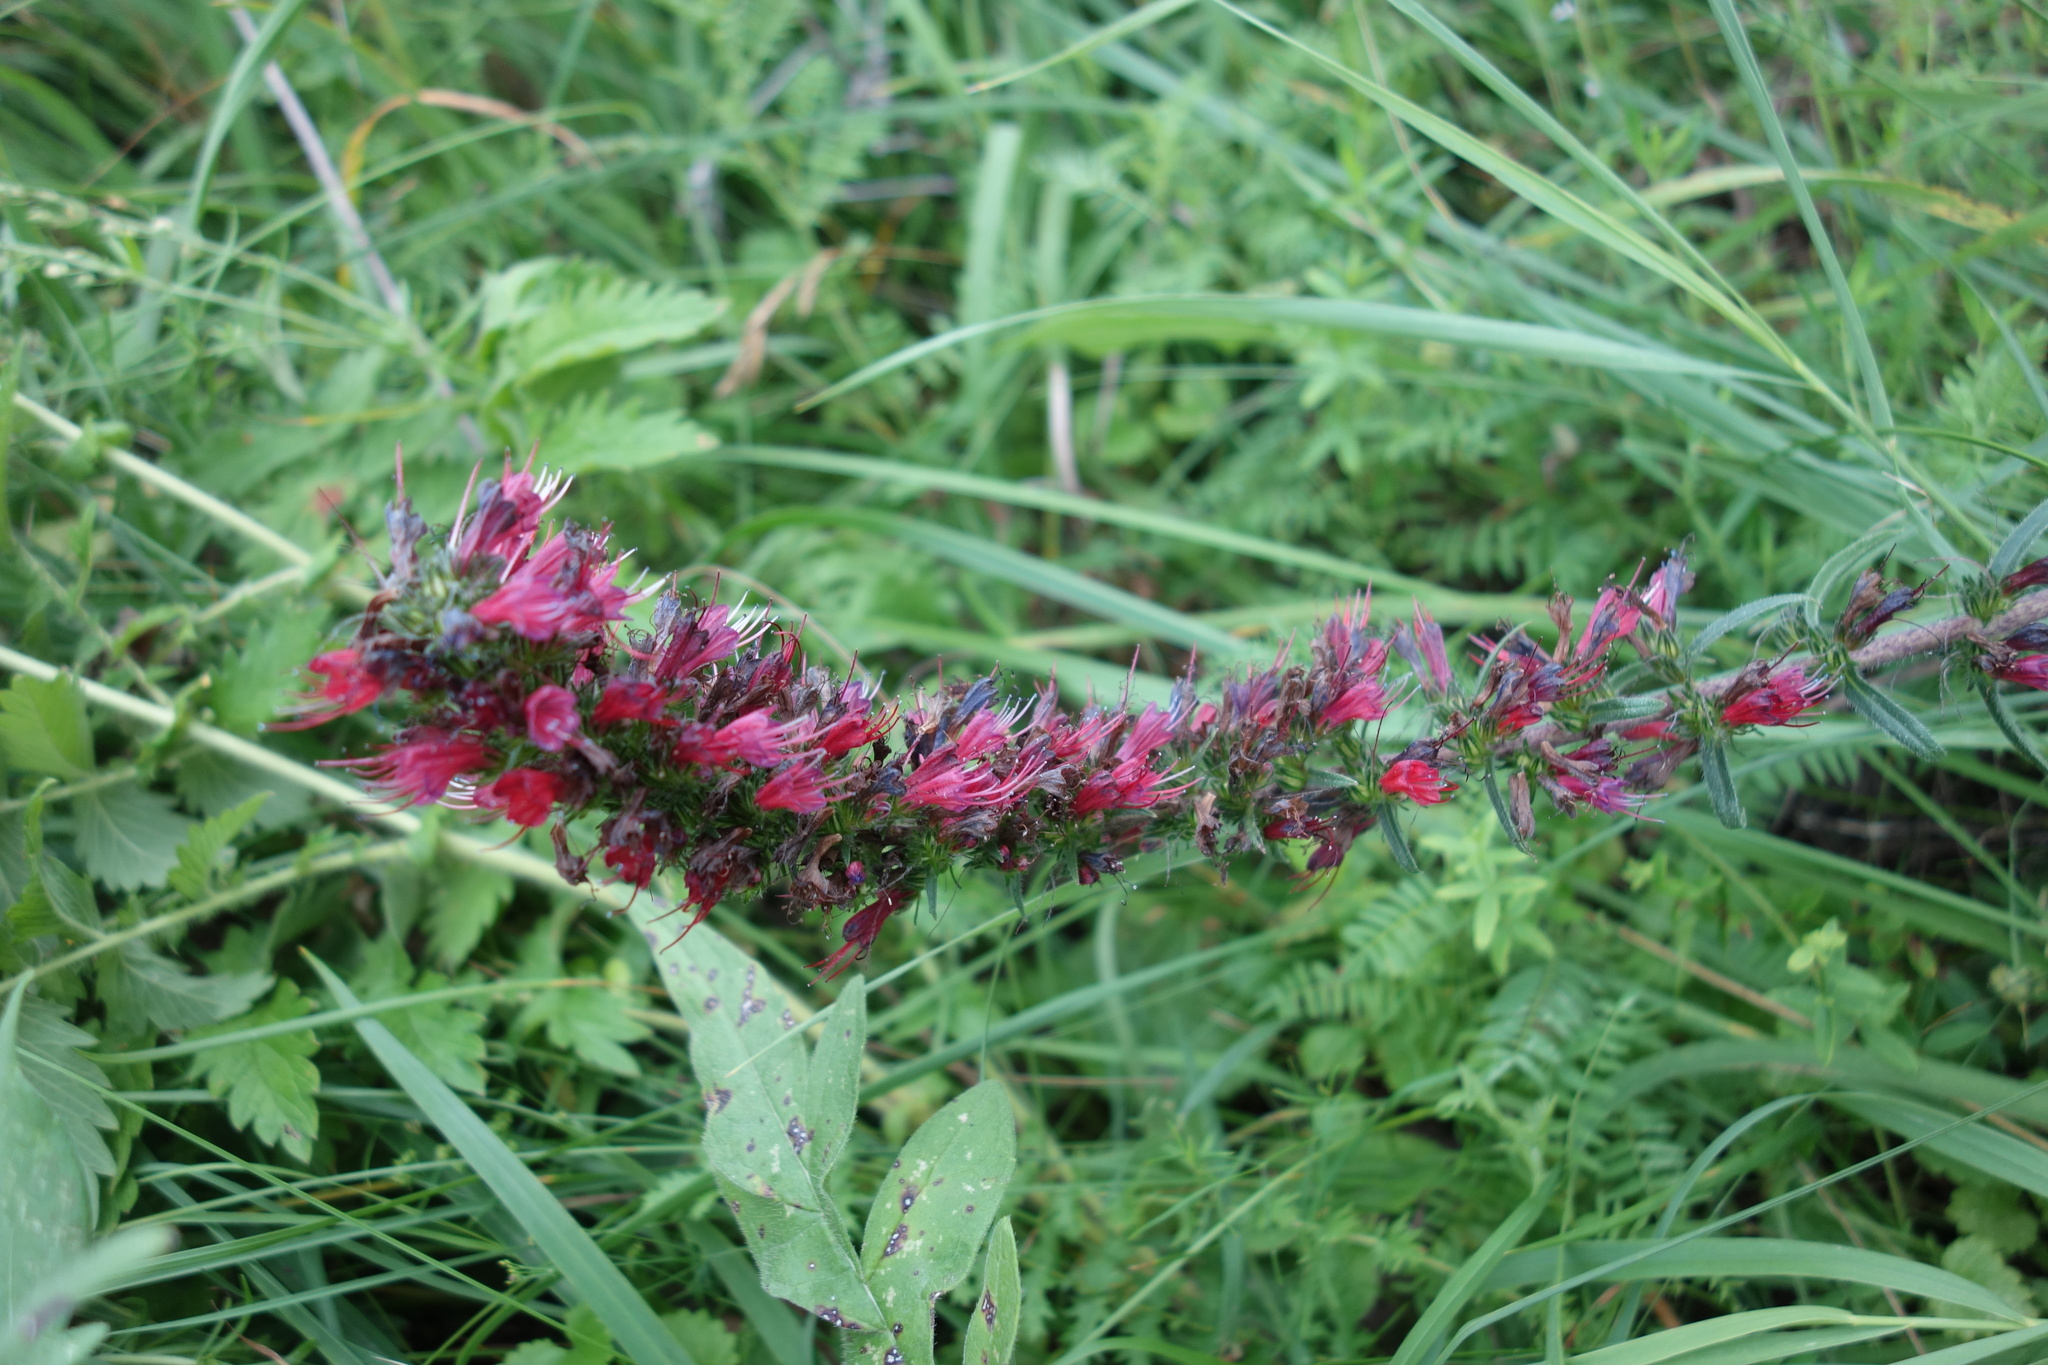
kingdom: Plantae
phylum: Tracheophyta
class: Magnoliopsida
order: Boraginales
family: Boraginaceae
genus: Pontechium
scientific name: Pontechium maculatum
